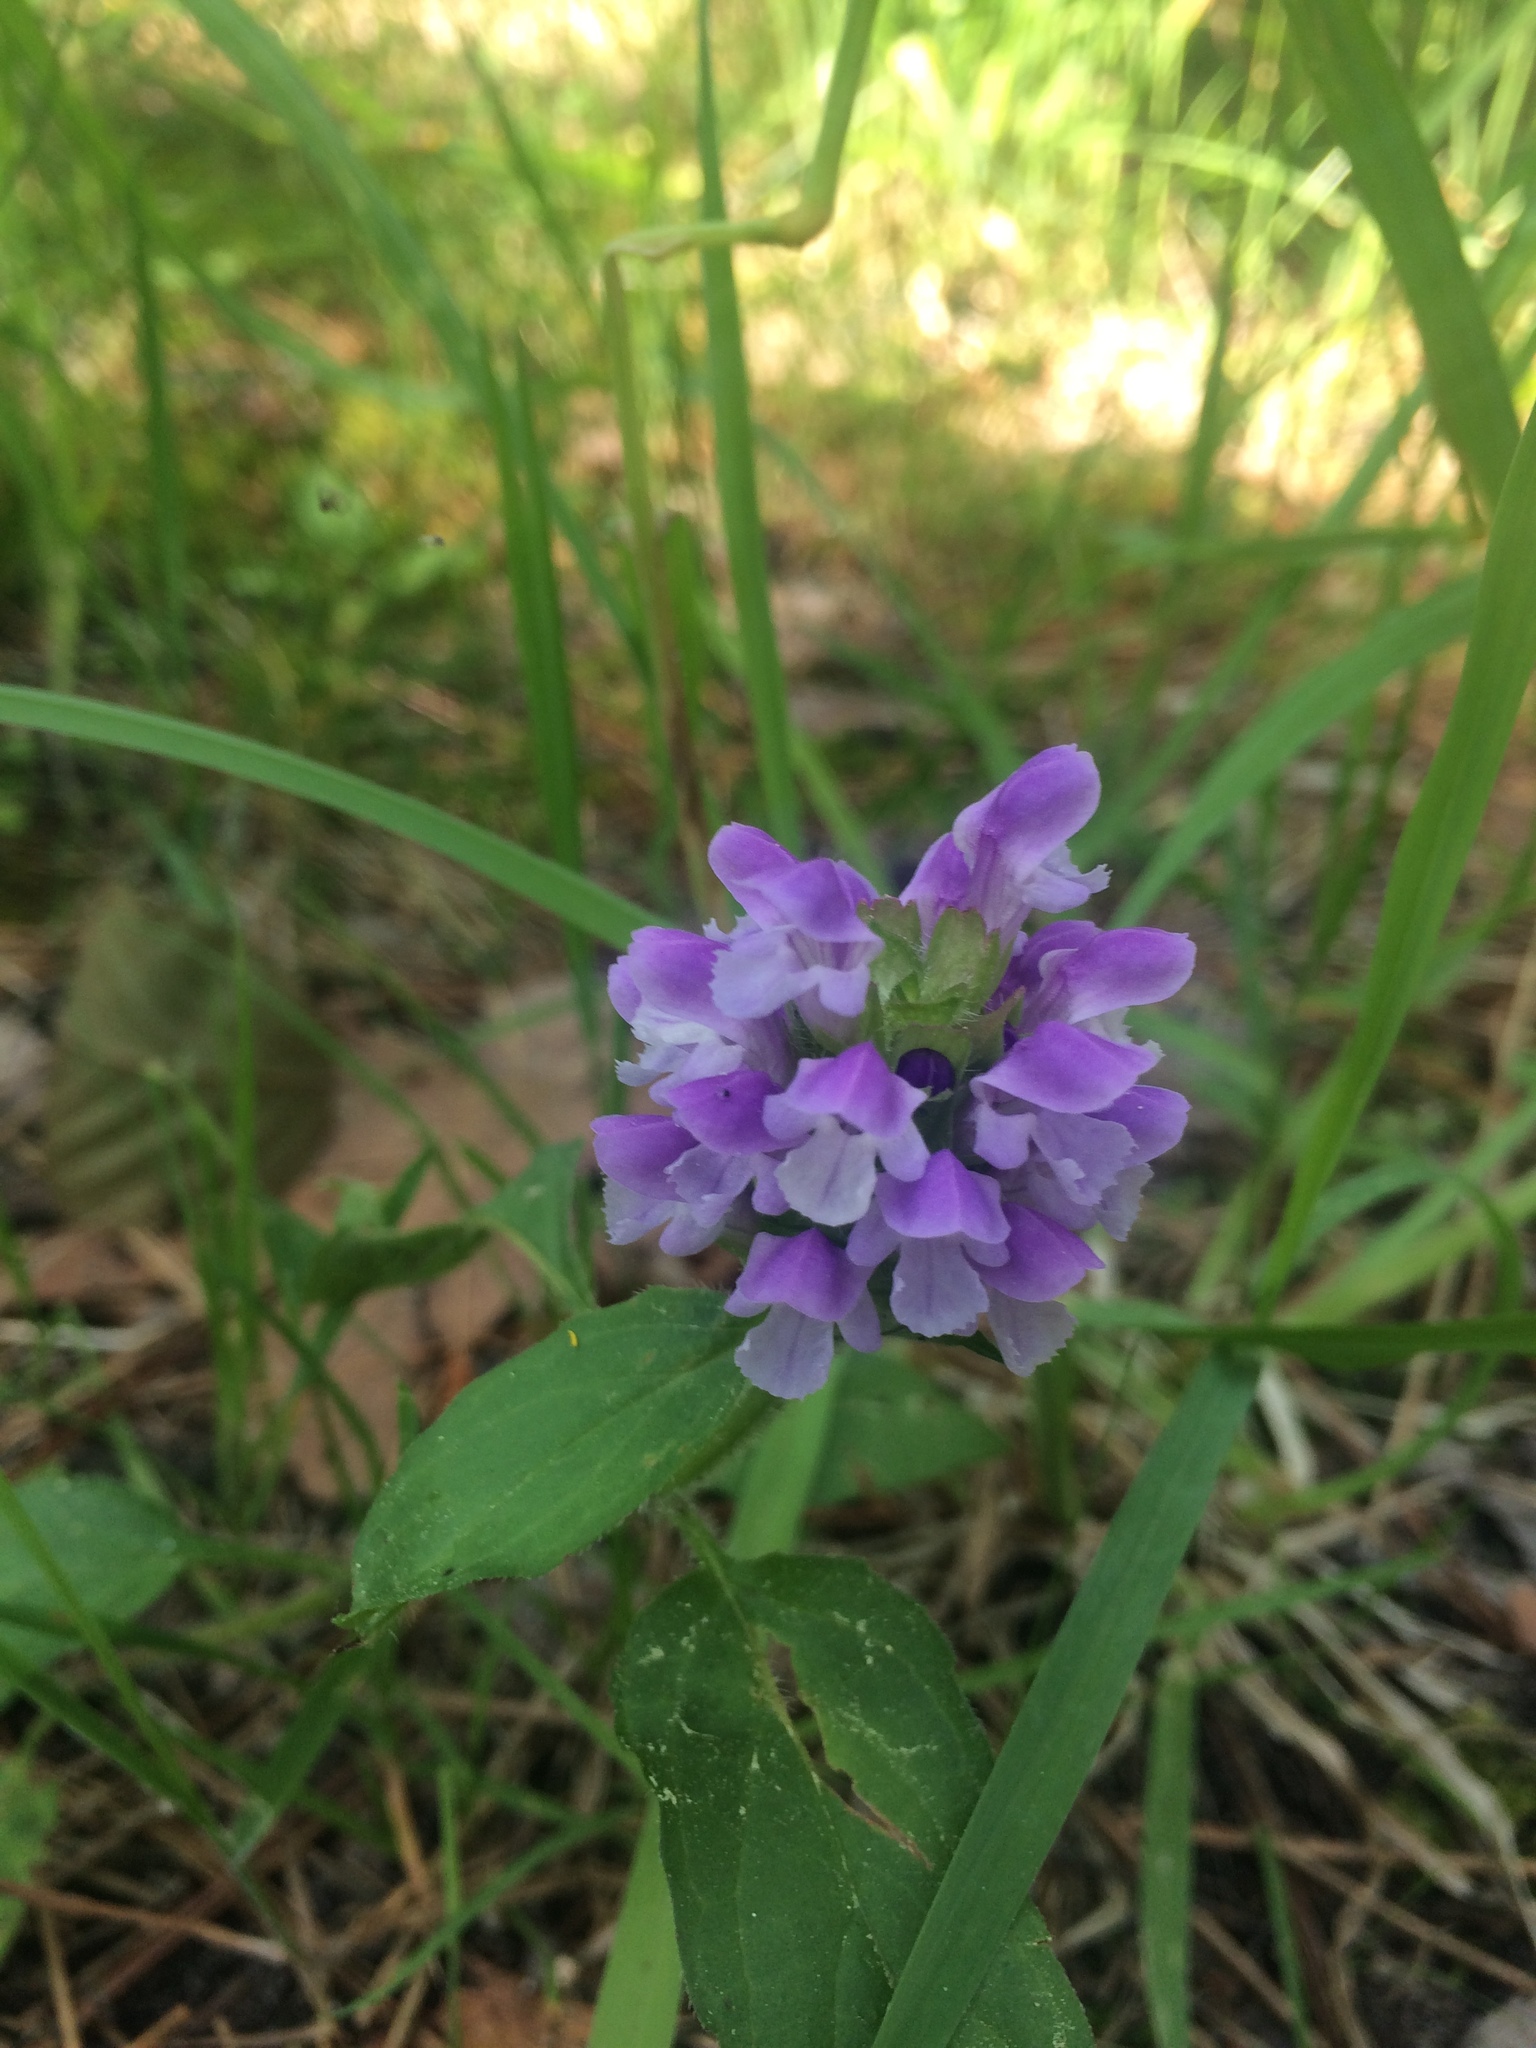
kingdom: Plantae
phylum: Tracheophyta
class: Magnoliopsida
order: Lamiales
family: Lamiaceae
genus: Prunella
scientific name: Prunella vulgaris
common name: Heal-all
